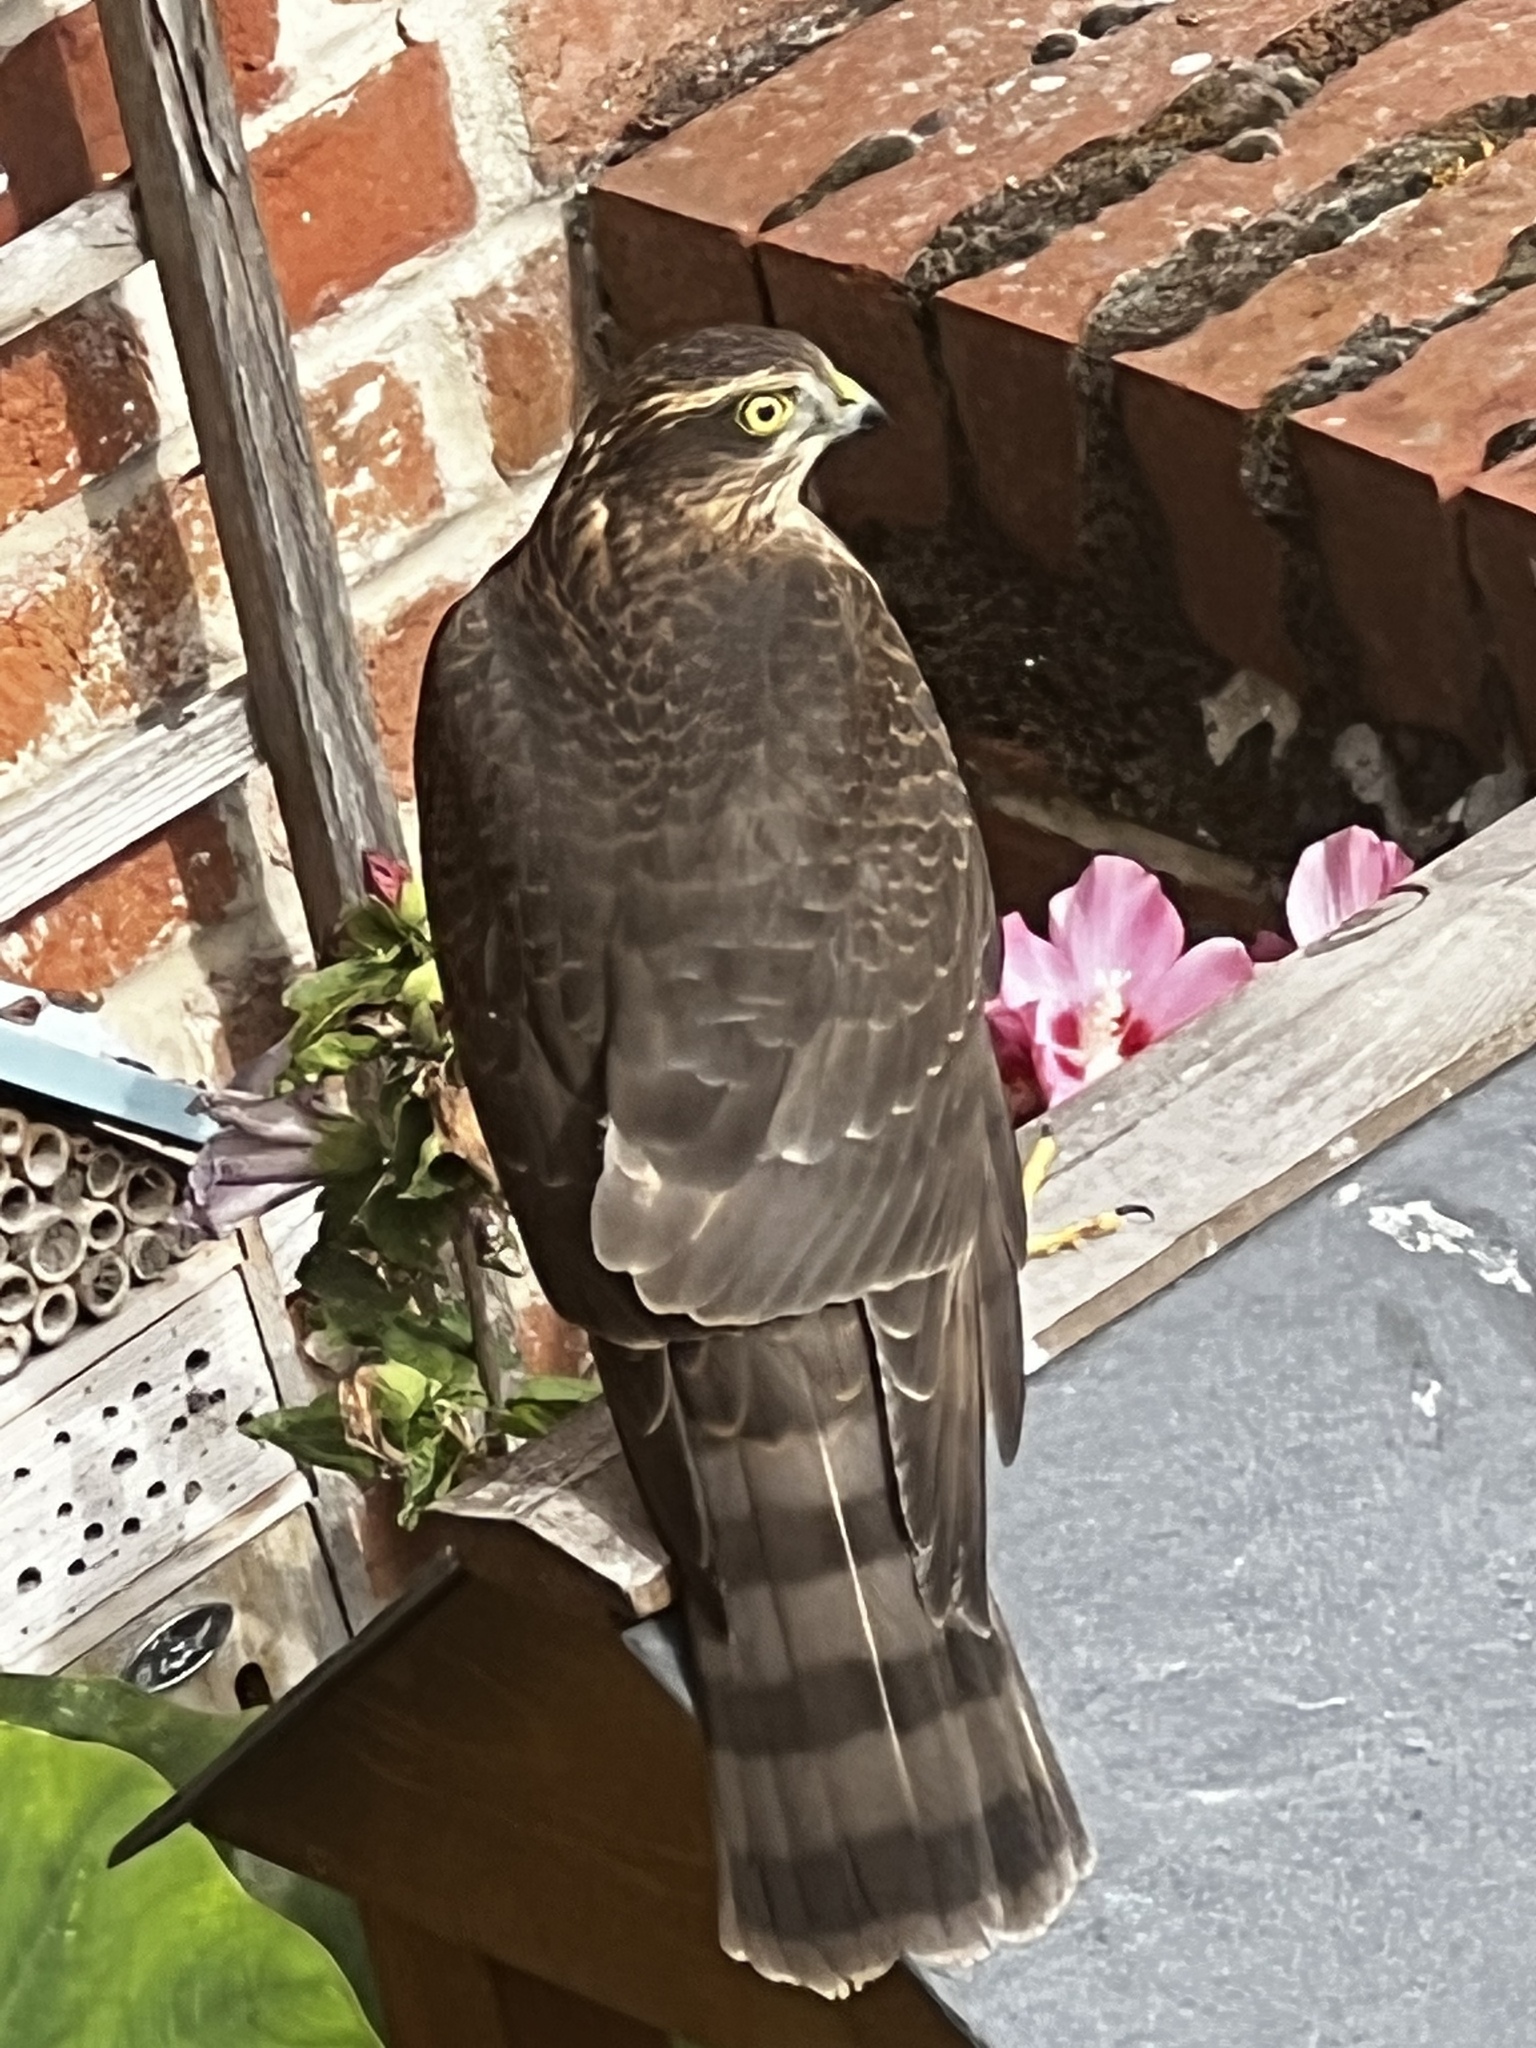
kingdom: Animalia
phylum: Chordata
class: Aves
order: Accipitriformes
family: Accipitridae
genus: Accipiter
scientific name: Accipiter nisus
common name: Eurasian sparrowhawk
